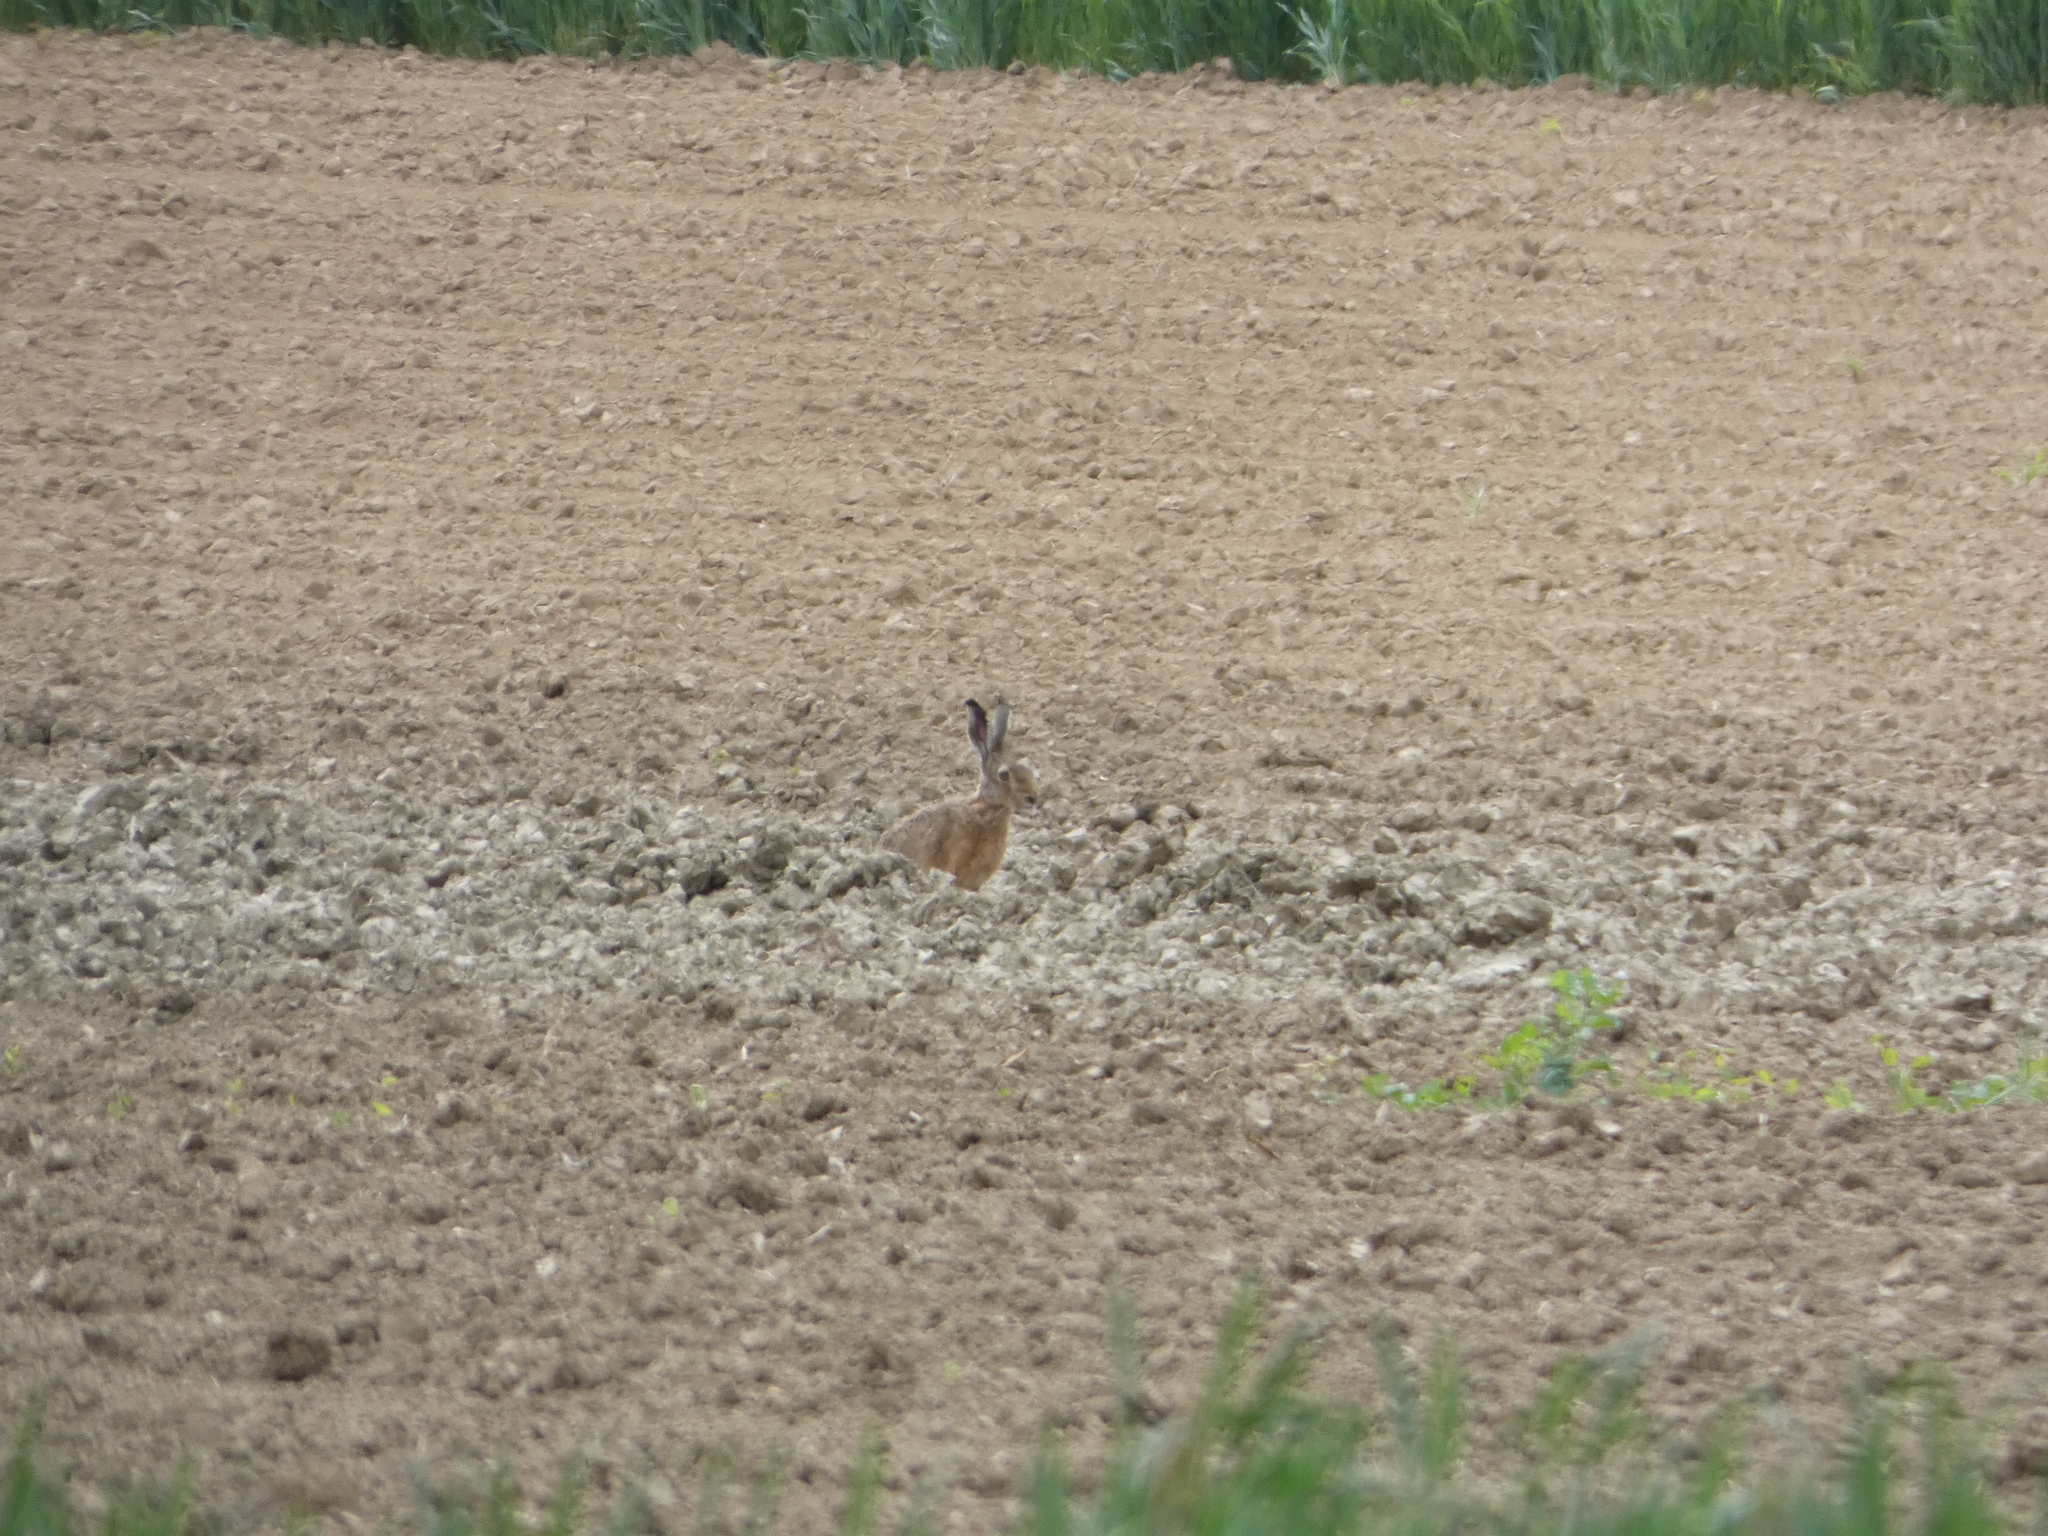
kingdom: Animalia
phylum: Chordata
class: Mammalia
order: Lagomorpha
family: Leporidae
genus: Lepus
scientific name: Lepus europaeus
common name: European hare
